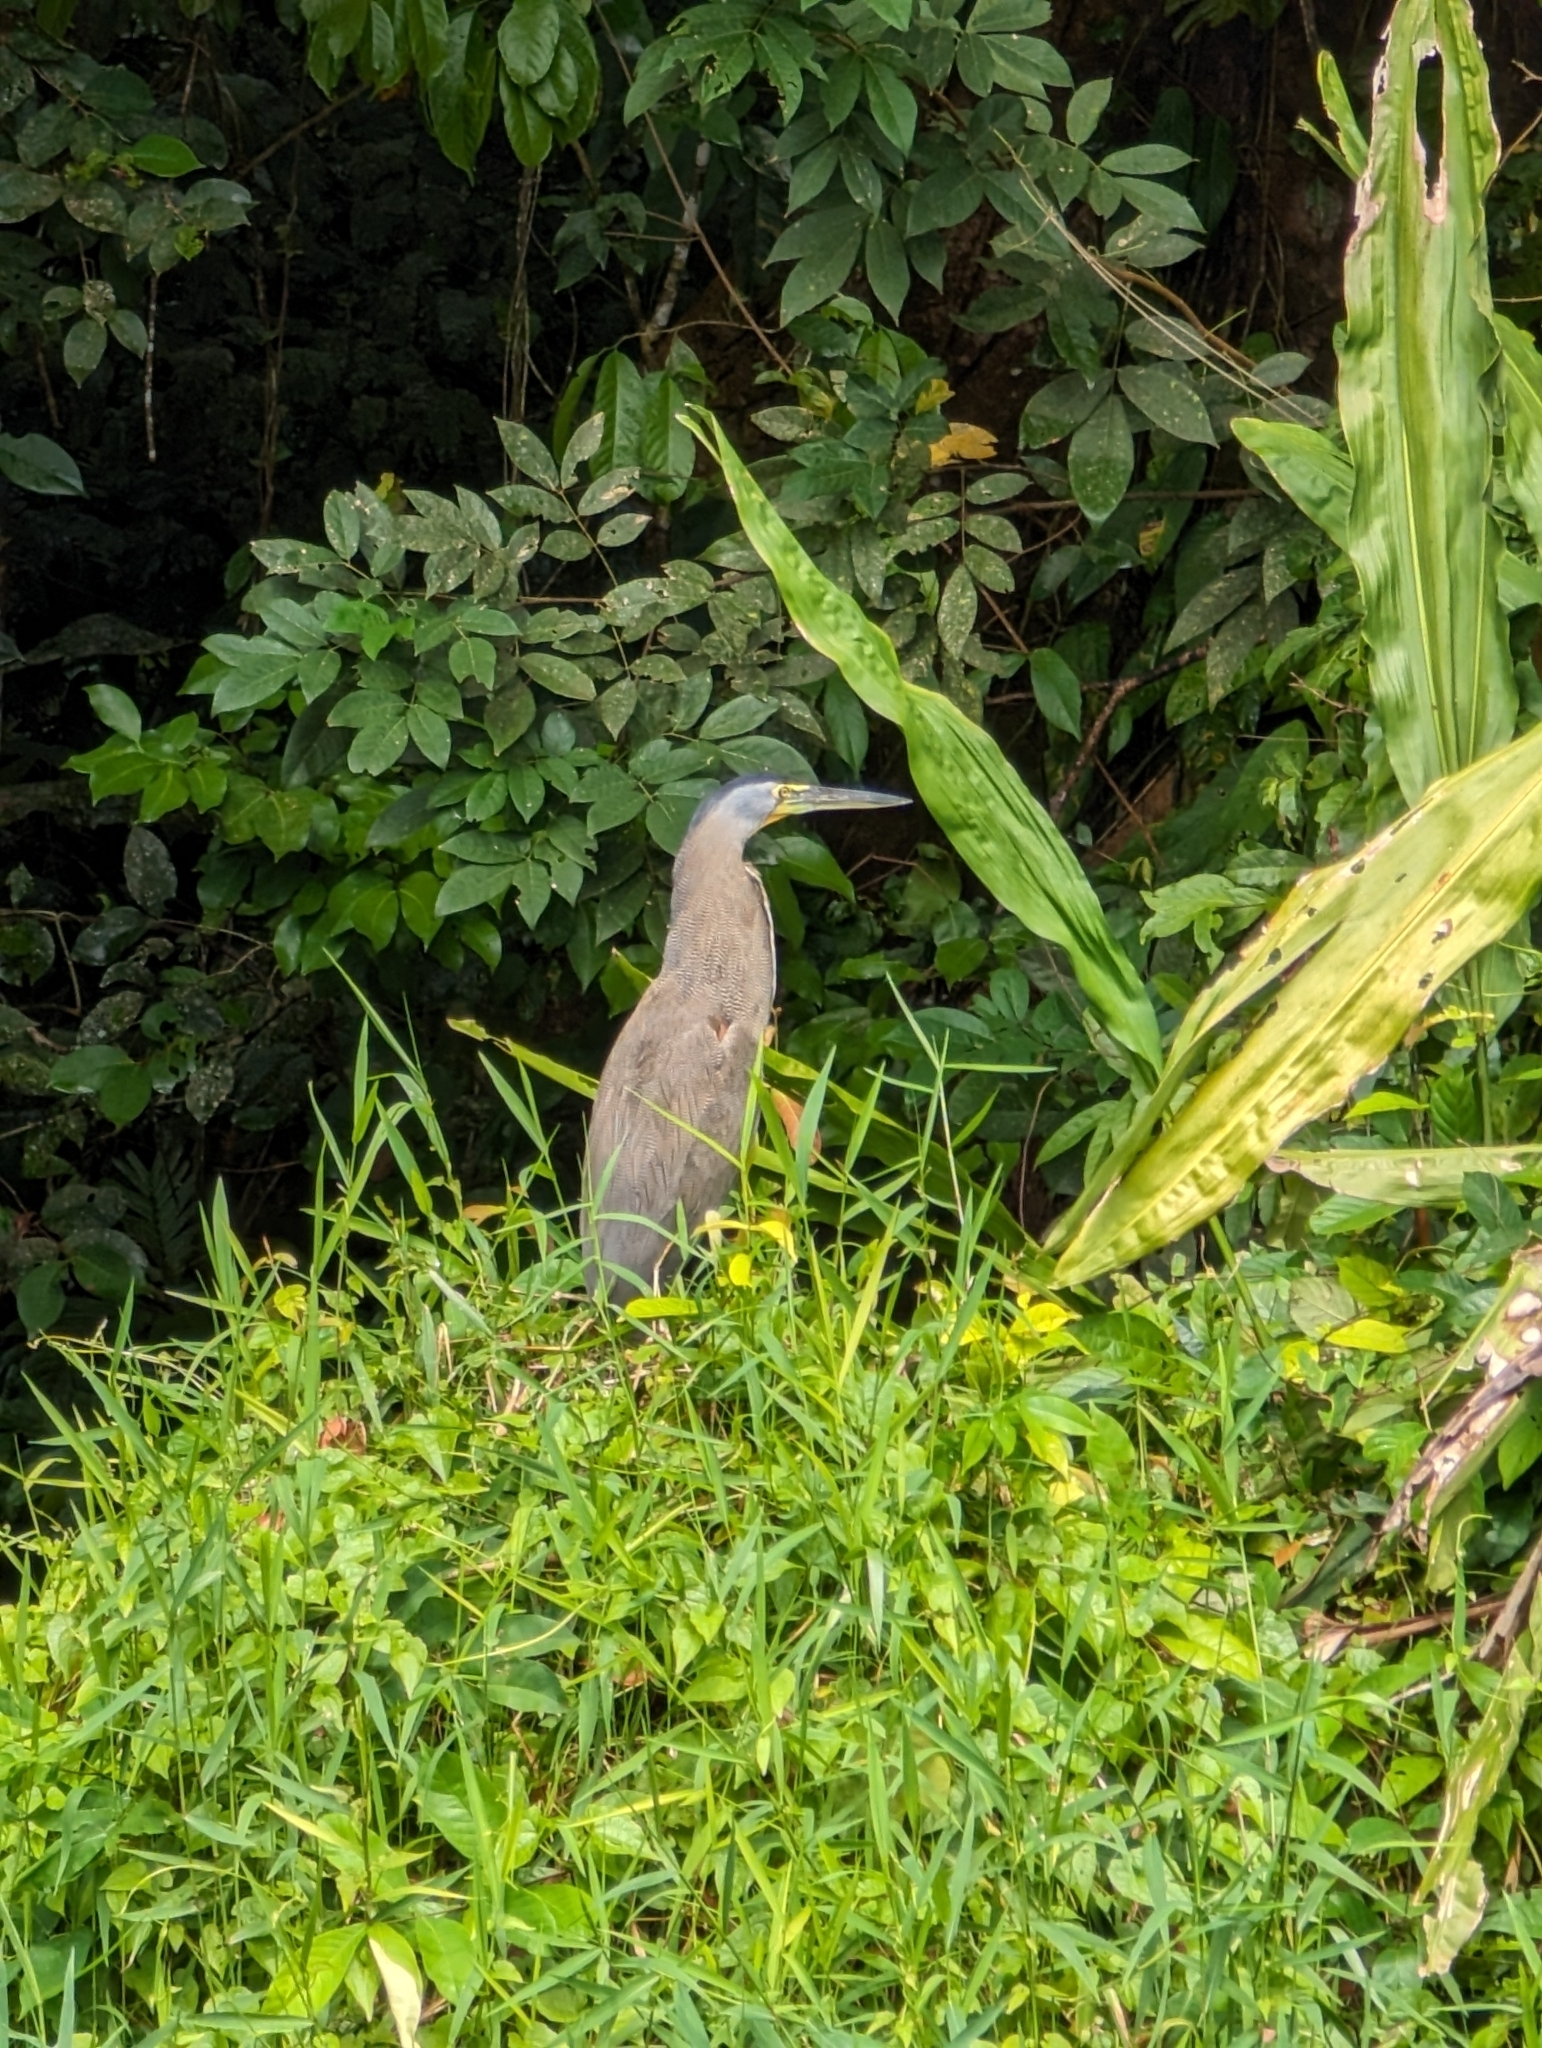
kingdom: Animalia
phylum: Chordata
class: Aves
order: Pelecaniformes
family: Ardeidae
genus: Tigrisoma
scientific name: Tigrisoma mexicanum
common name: Bare-throated tiger-heron
